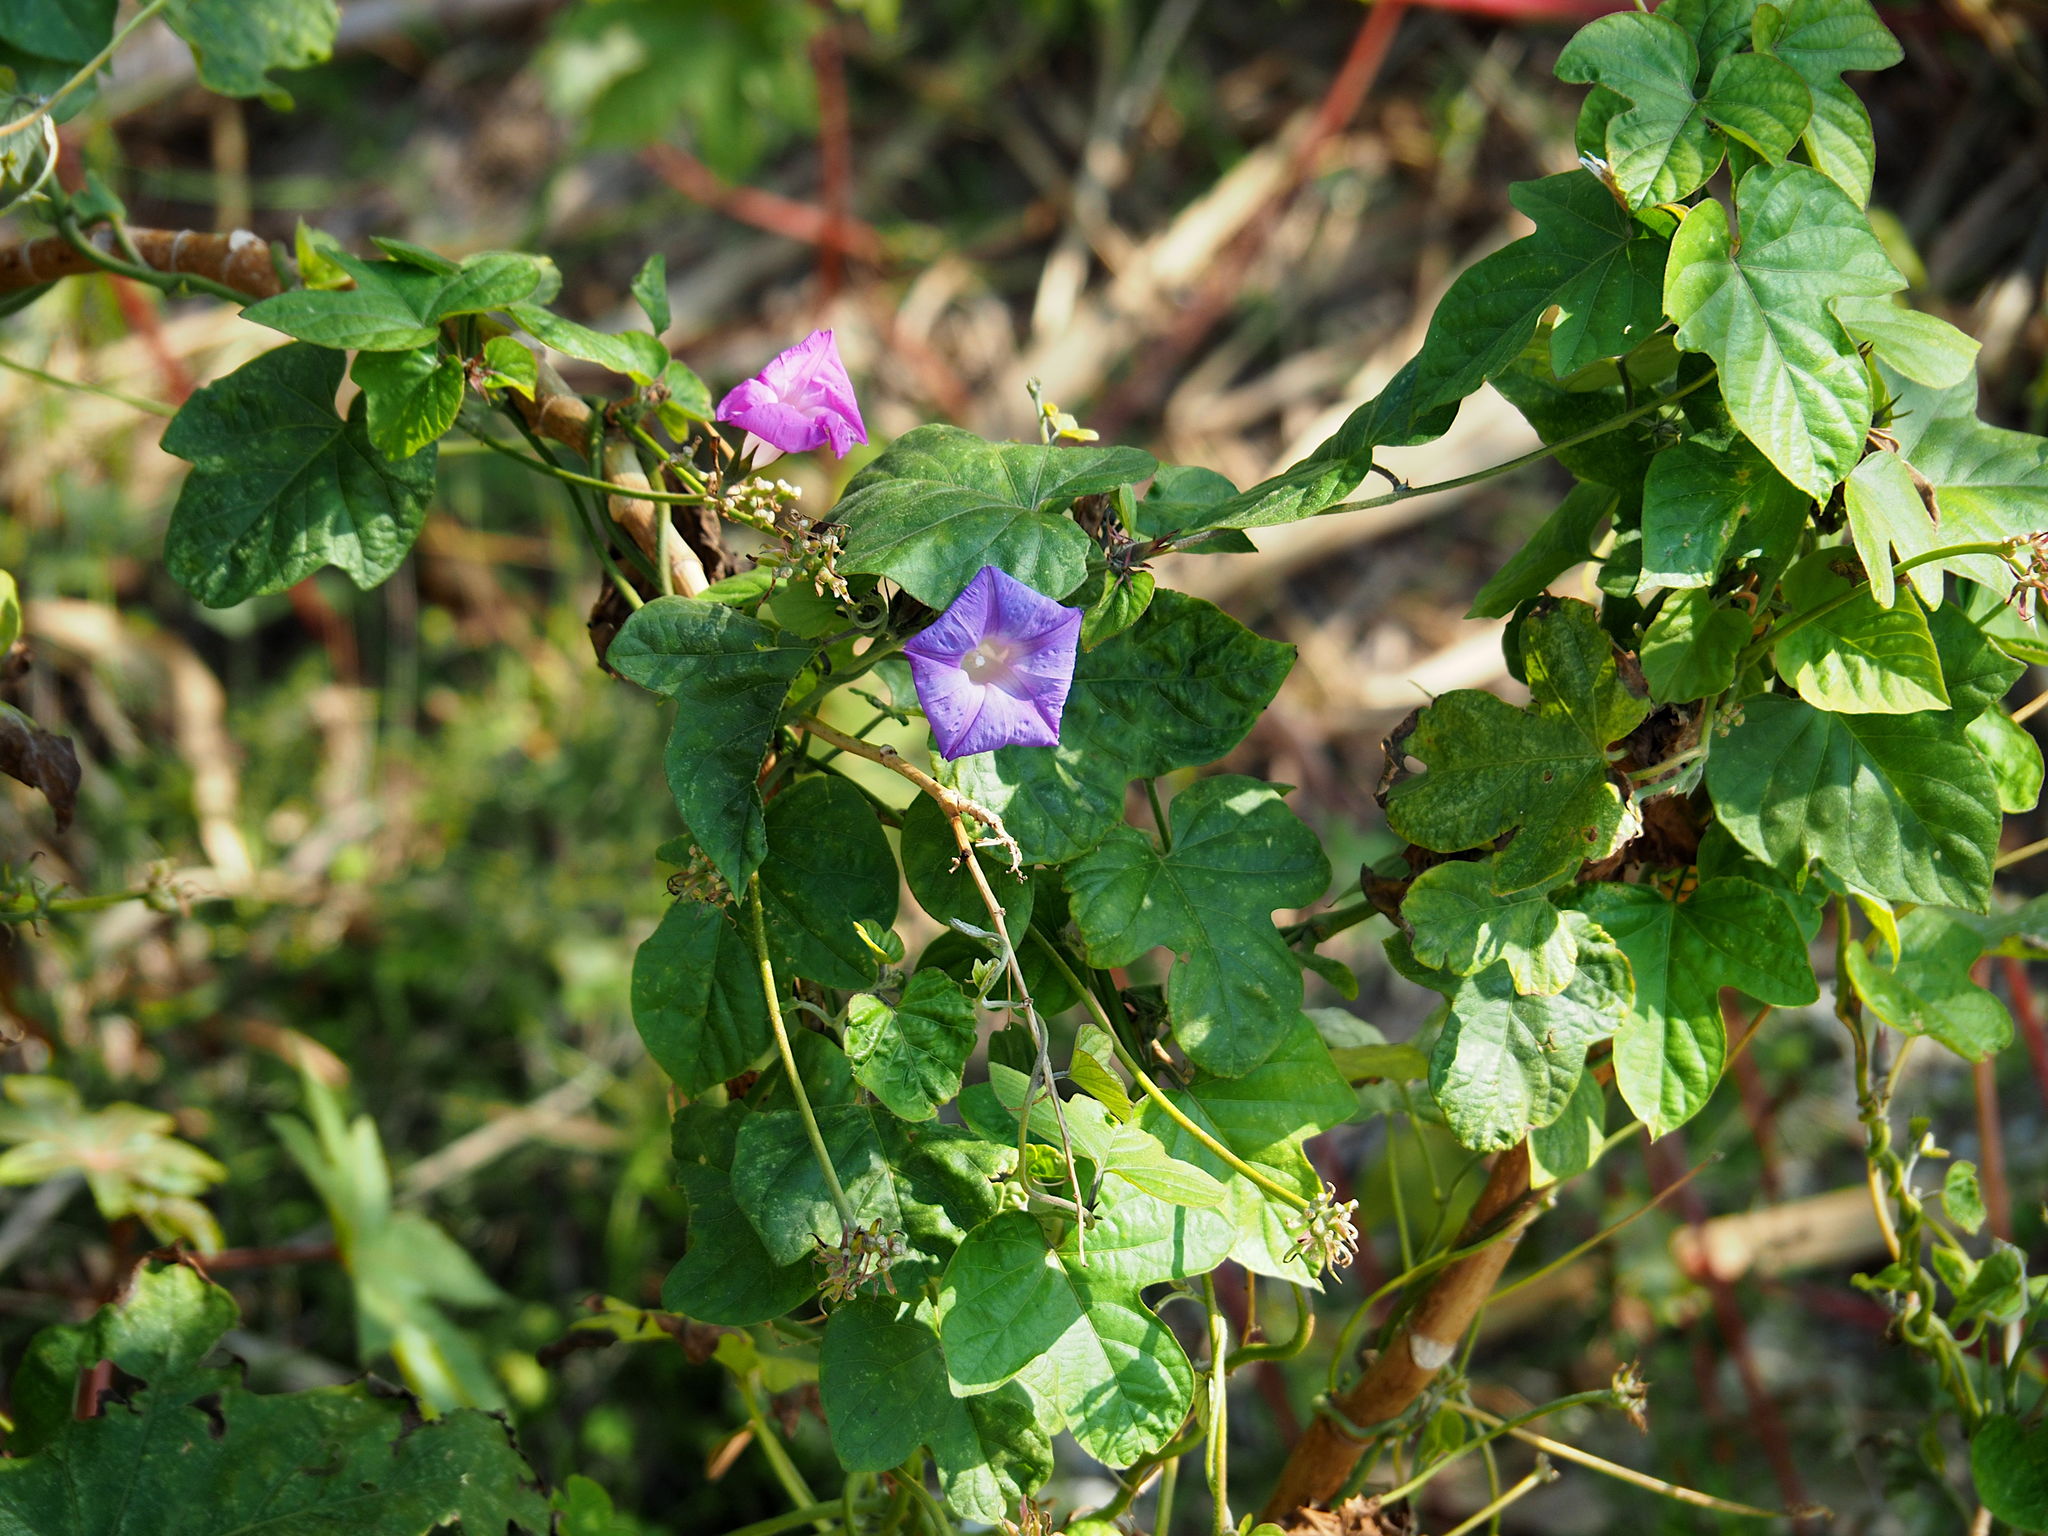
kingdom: Plantae
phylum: Tracheophyta
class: Magnoliopsida
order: Solanales
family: Convolvulaceae
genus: Ipomoea
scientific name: Ipomoea indica
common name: Blue dawnflower
